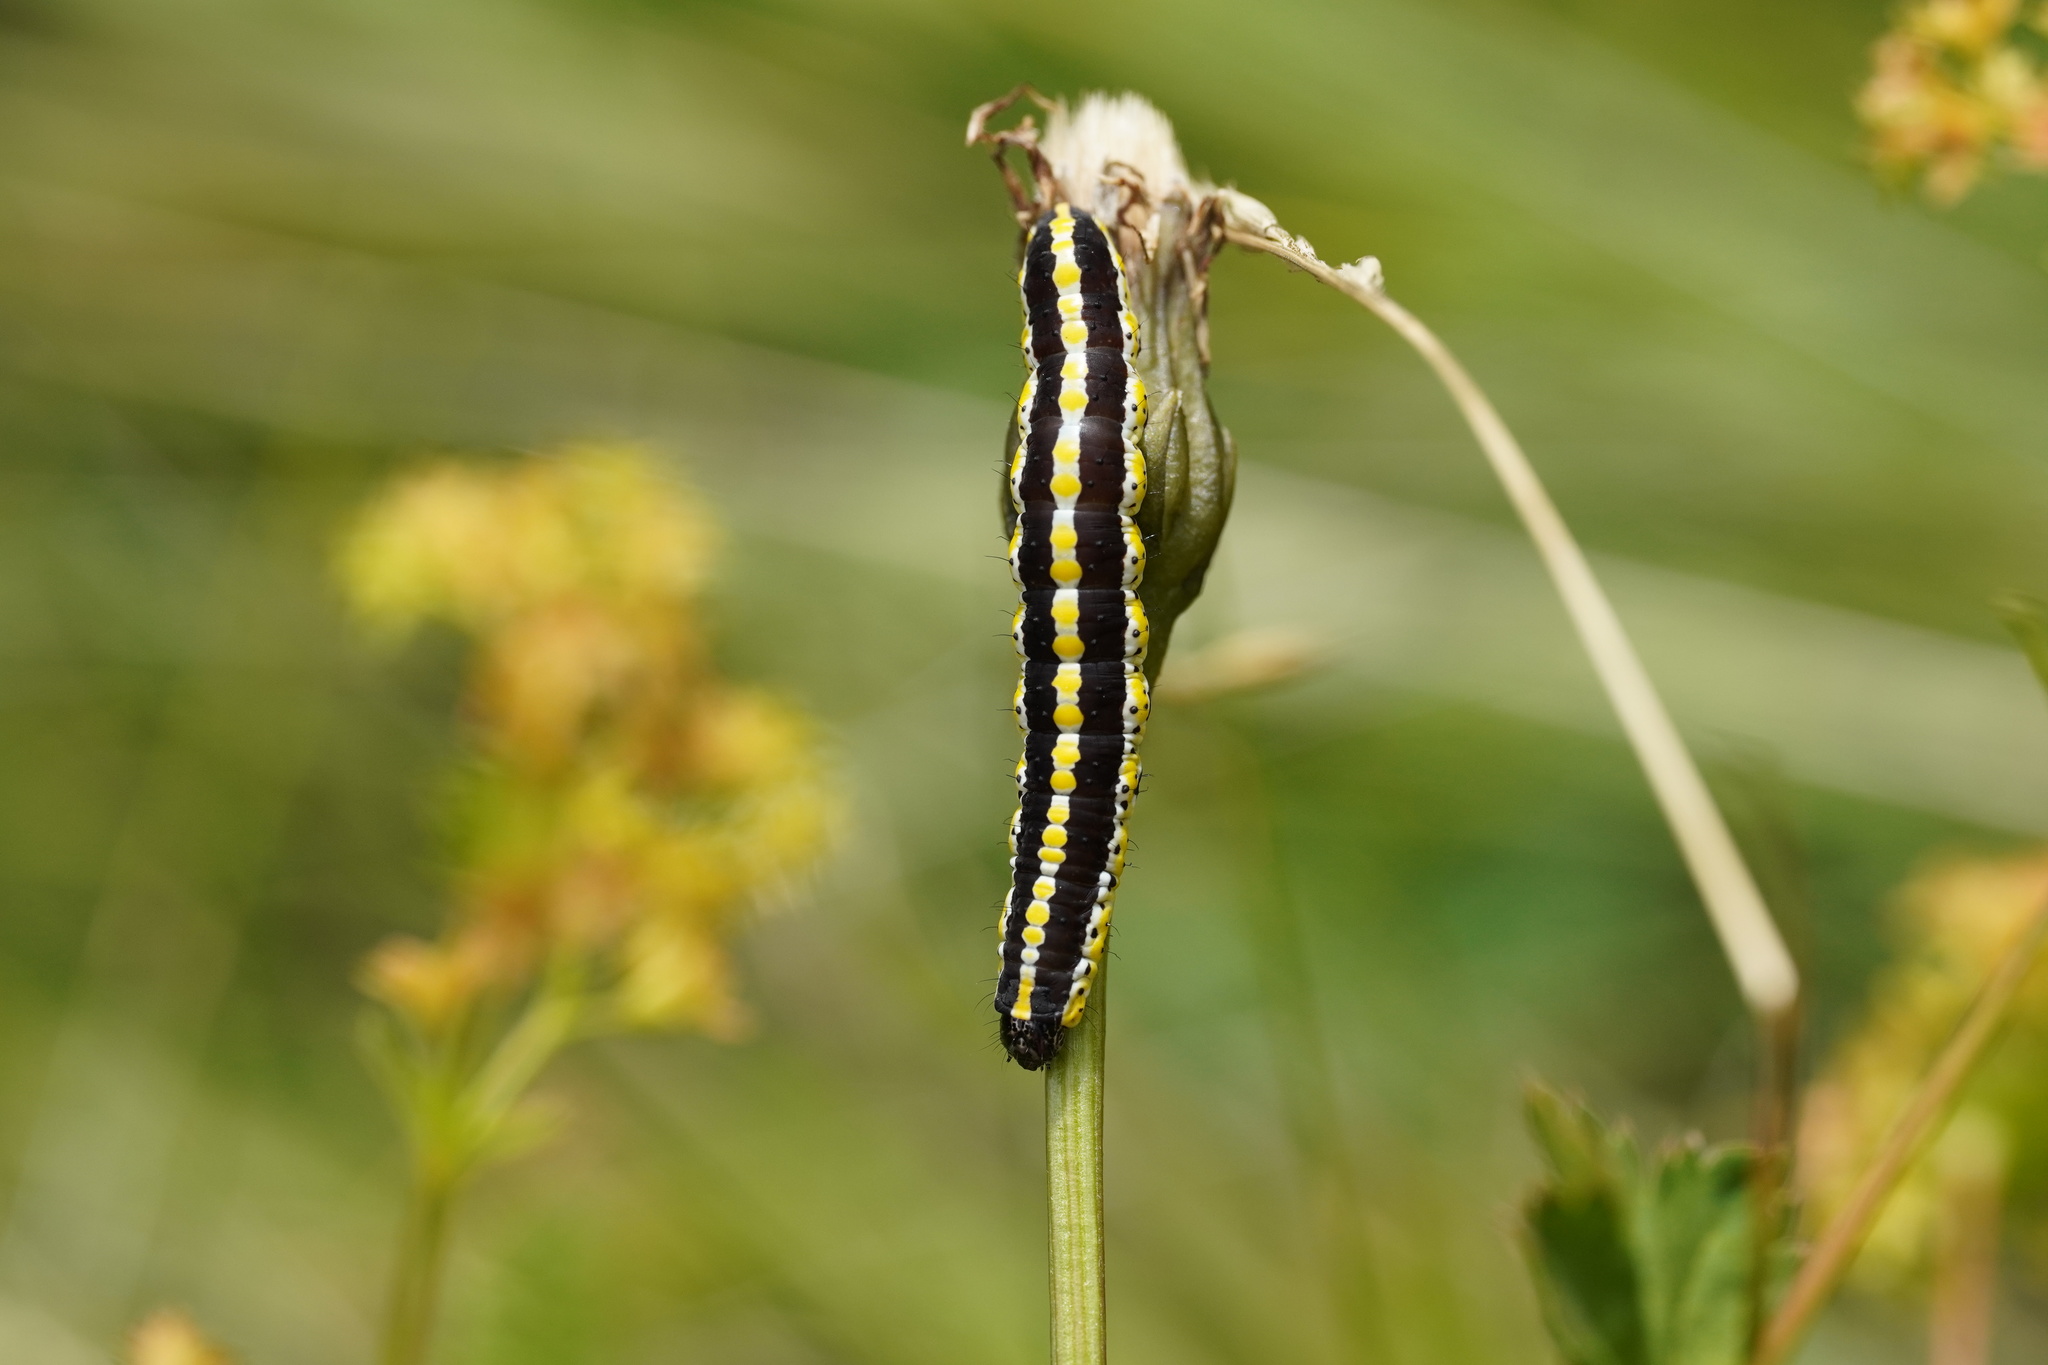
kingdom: Animalia
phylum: Arthropoda
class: Insecta
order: Lepidoptera
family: Noctuidae
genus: Cucullia
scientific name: Cucullia lucifuga
